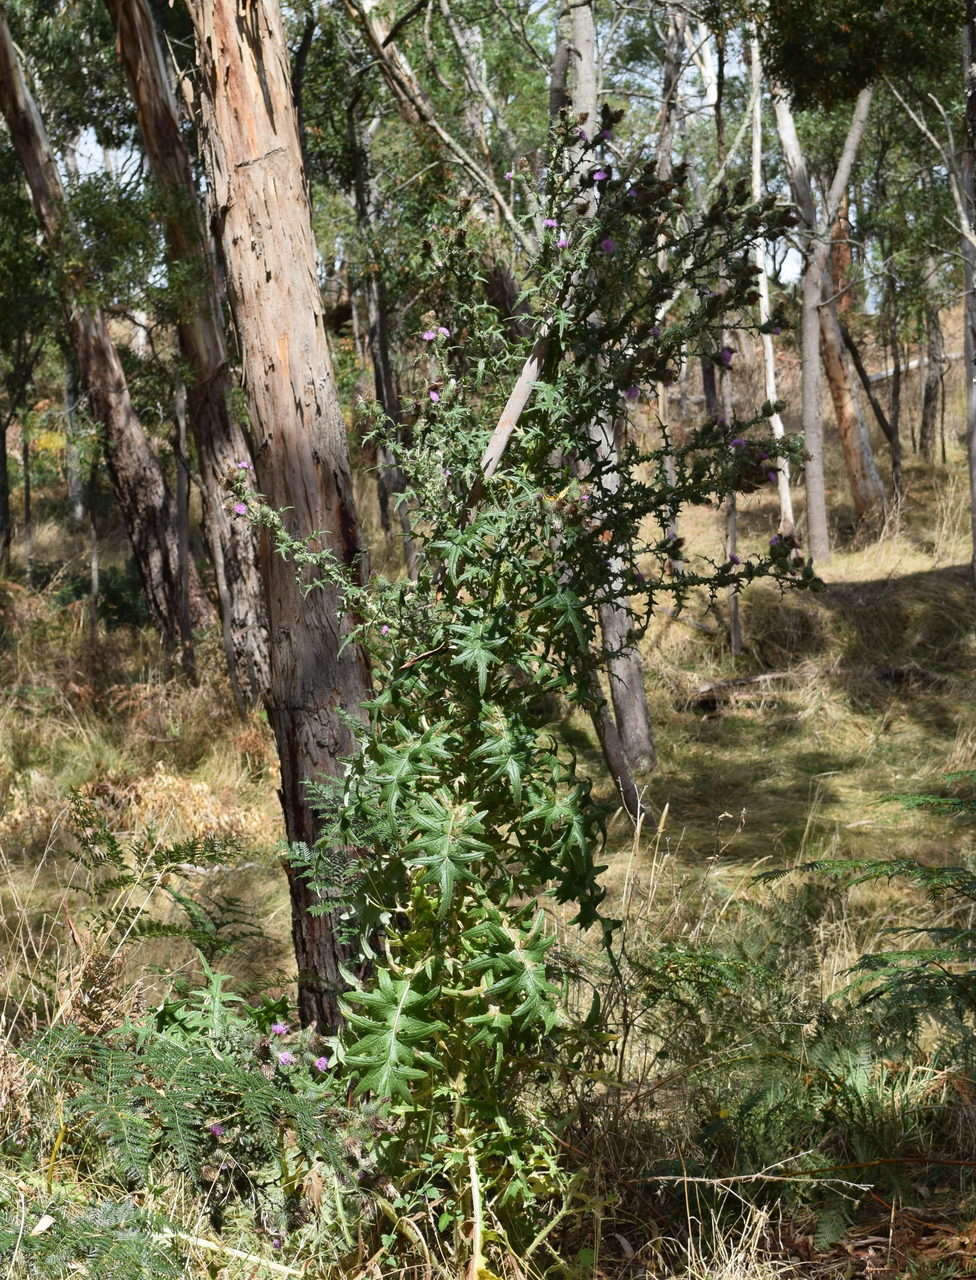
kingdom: Plantae
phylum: Tracheophyta
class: Magnoliopsida
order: Asterales
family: Asteraceae
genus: Cirsium
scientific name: Cirsium vulgare
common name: Bull thistle
